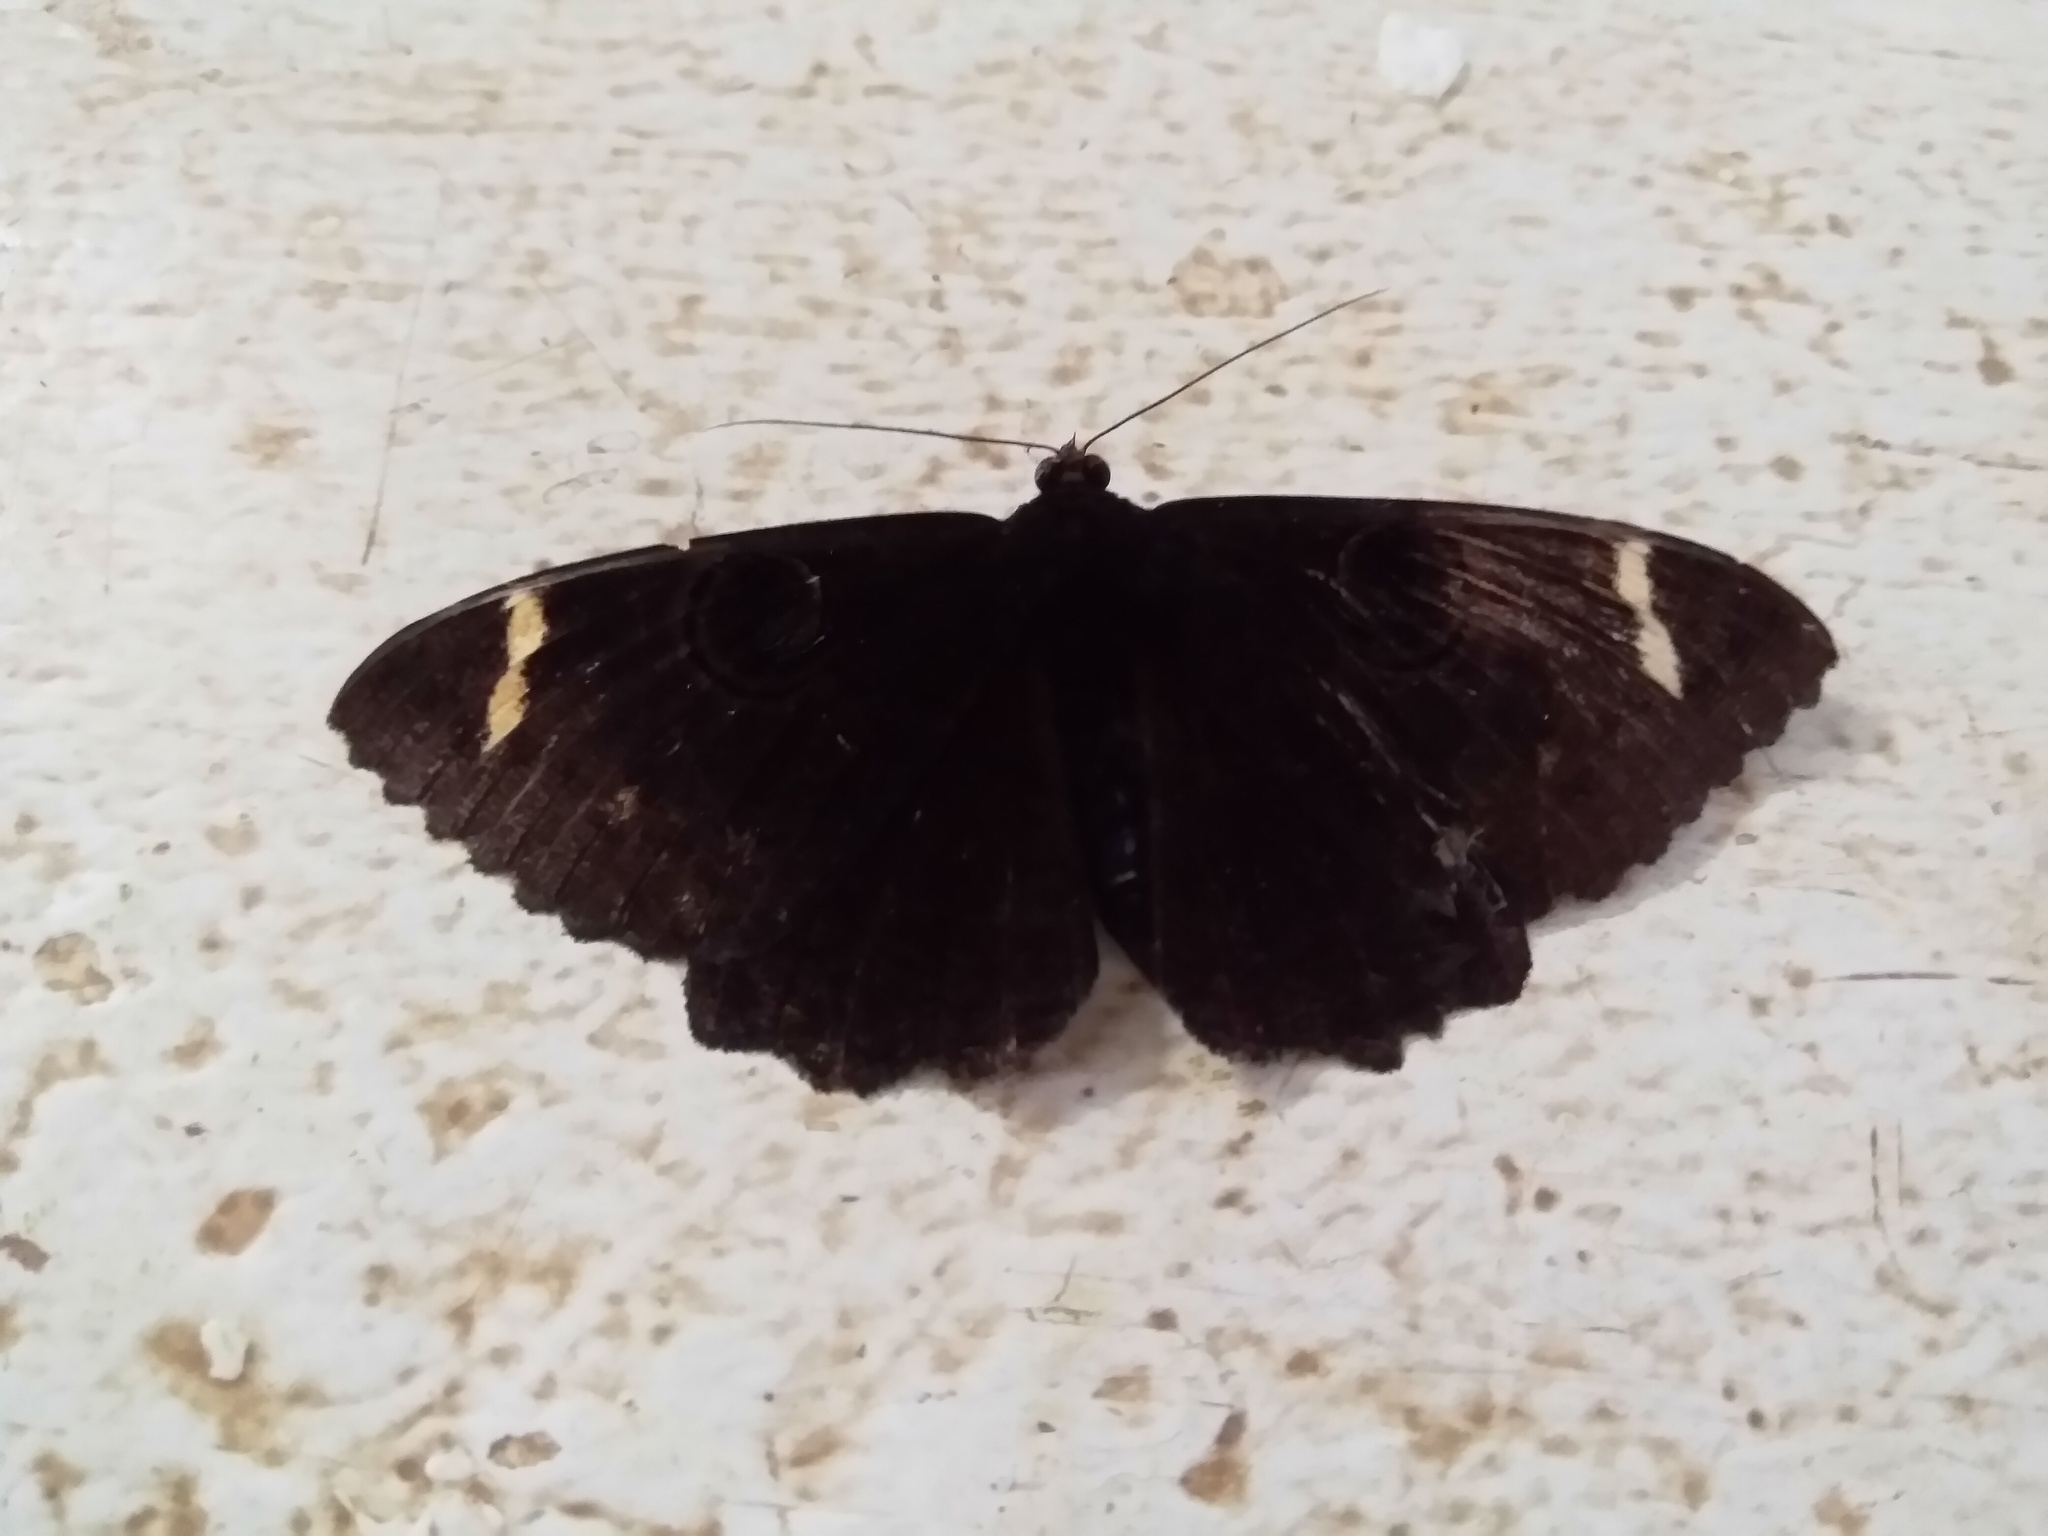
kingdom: Animalia
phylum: Arthropoda
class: Insecta
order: Lepidoptera
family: Erebidae
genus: Erebus
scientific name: Erebus hieroglyphica
